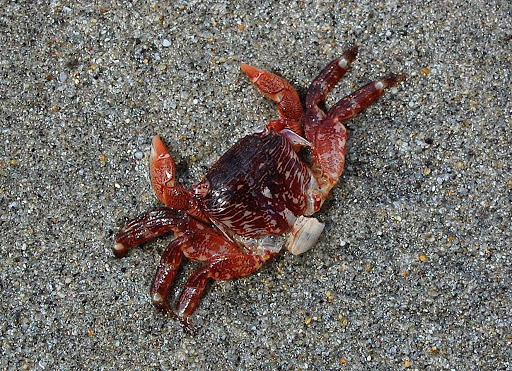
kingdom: Animalia
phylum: Arthropoda
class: Malacostraca
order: Decapoda
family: Grapsidae
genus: Pachygrapsus
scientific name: Pachygrapsus crassipes
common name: Striped shore crab
